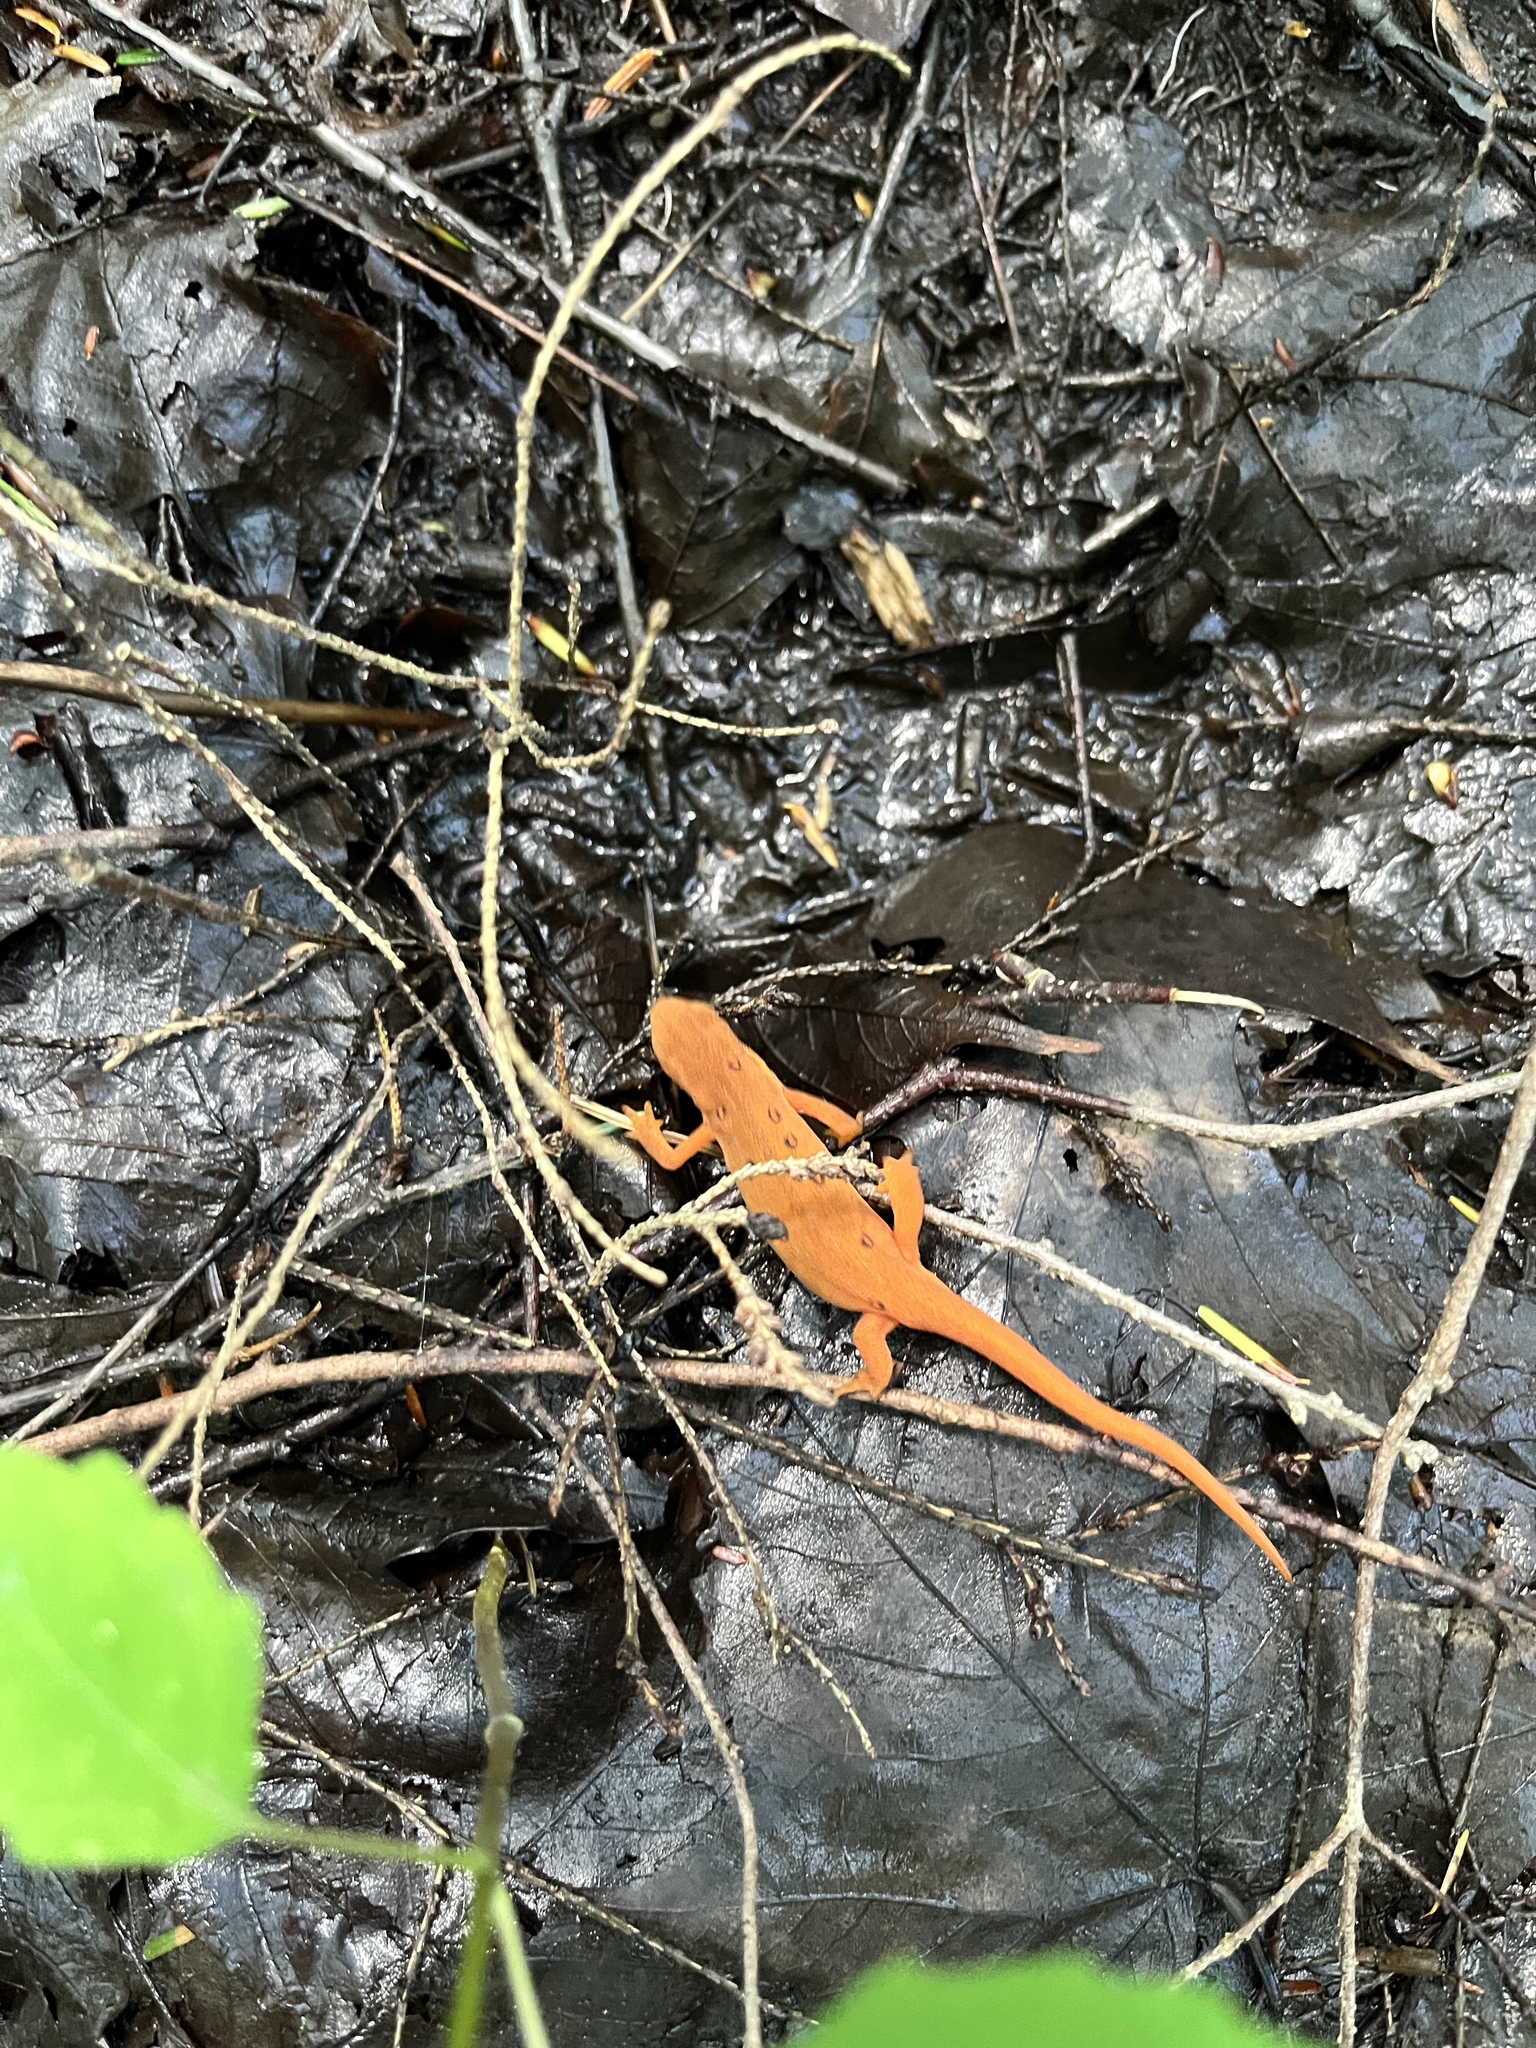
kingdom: Animalia
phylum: Chordata
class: Amphibia
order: Caudata
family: Salamandridae
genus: Notophthalmus
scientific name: Notophthalmus viridescens
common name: Eastern newt
